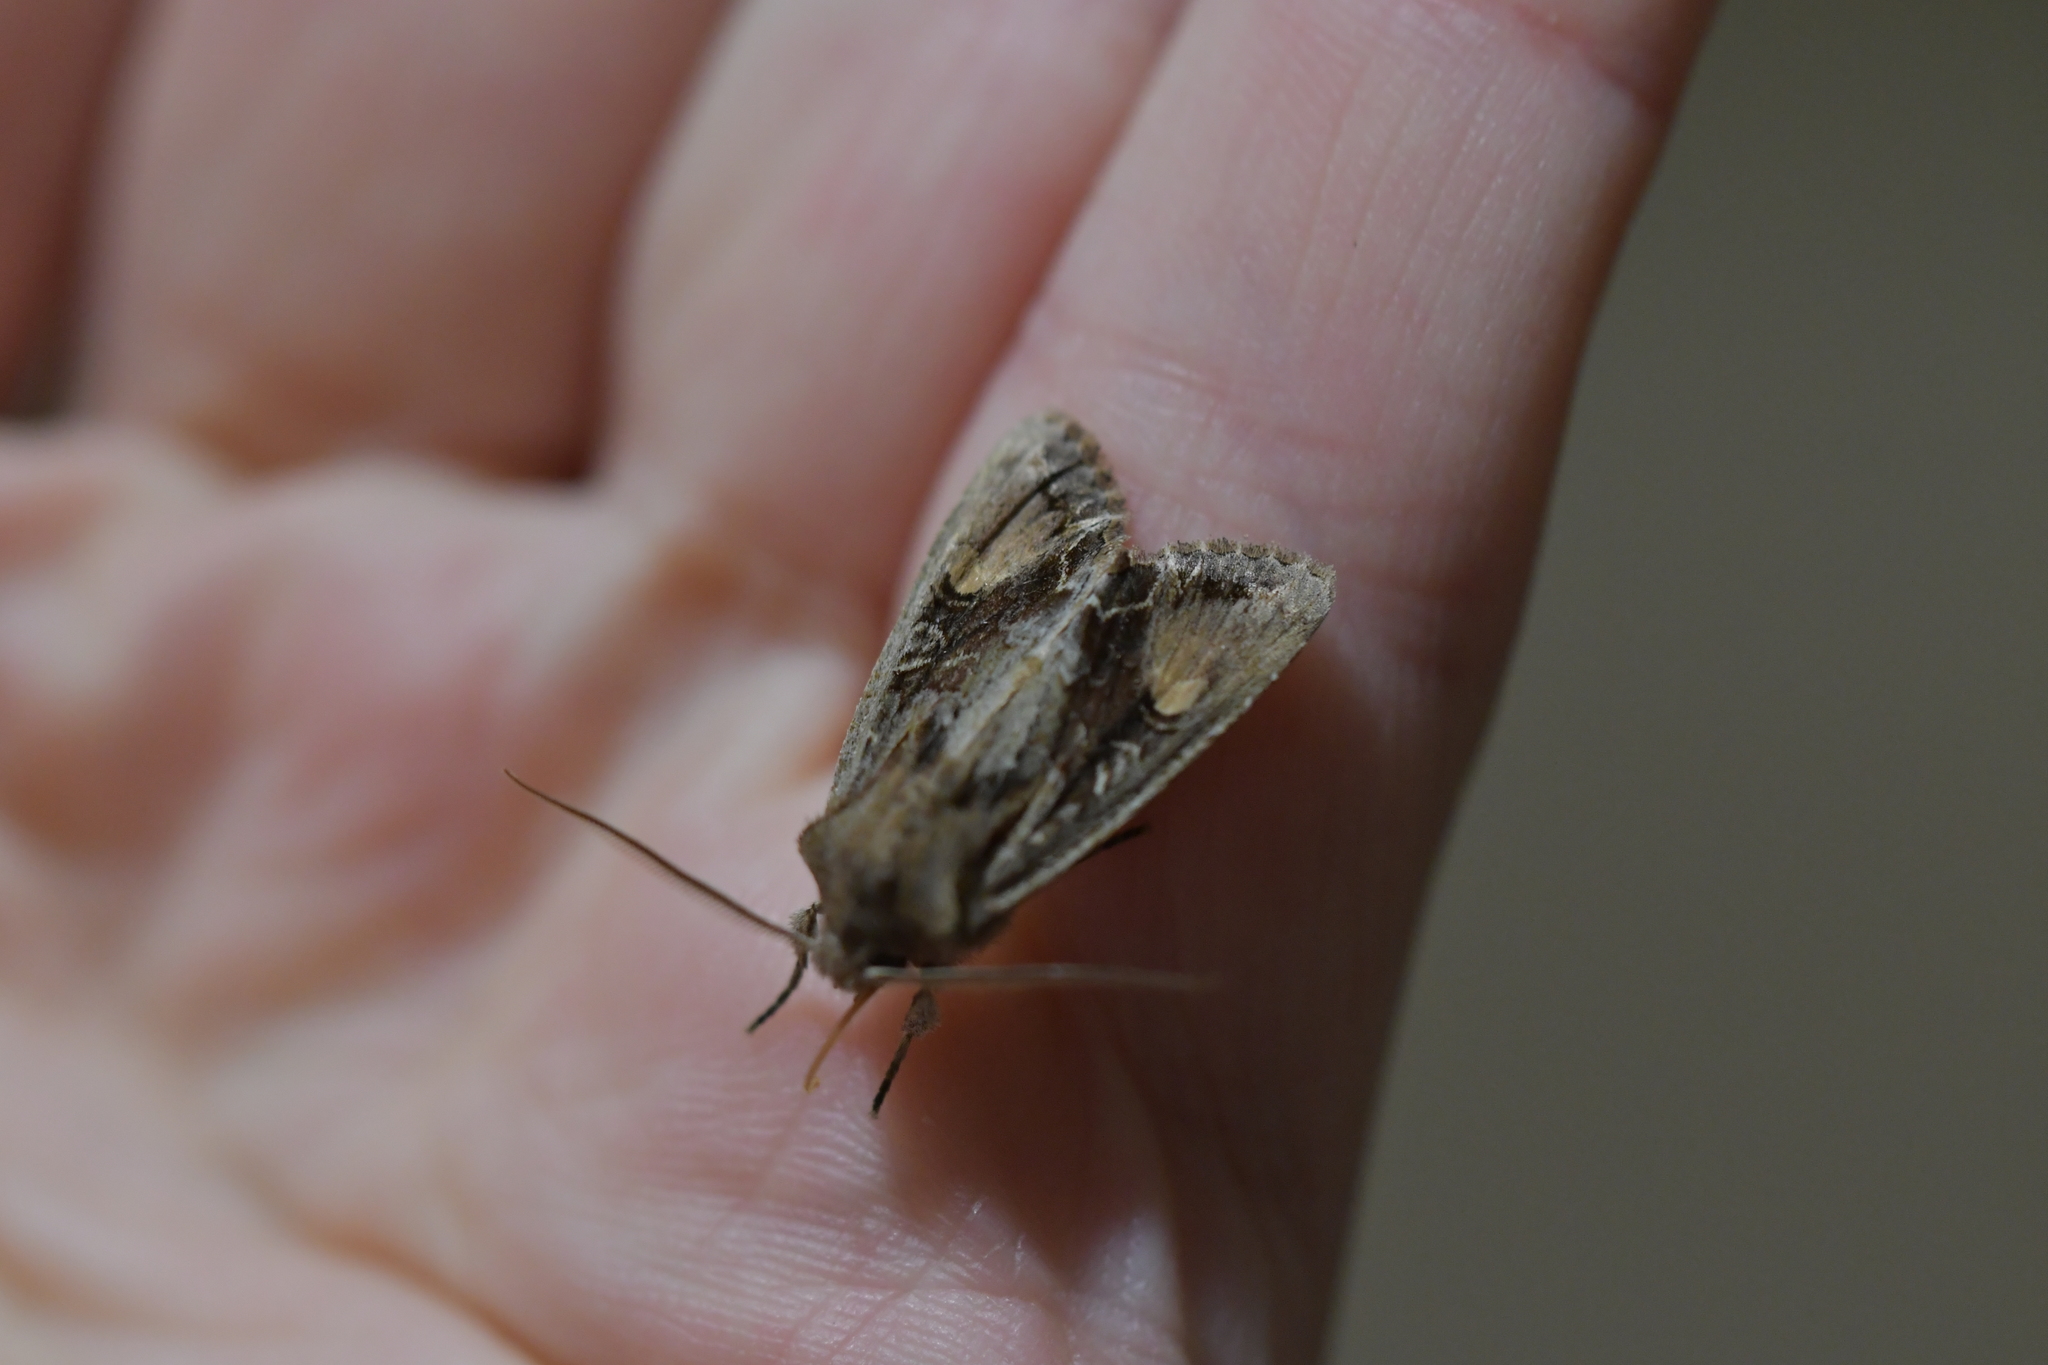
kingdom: Animalia
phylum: Arthropoda
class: Insecta
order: Lepidoptera
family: Noctuidae
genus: Ichneutica
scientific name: Ichneutica
